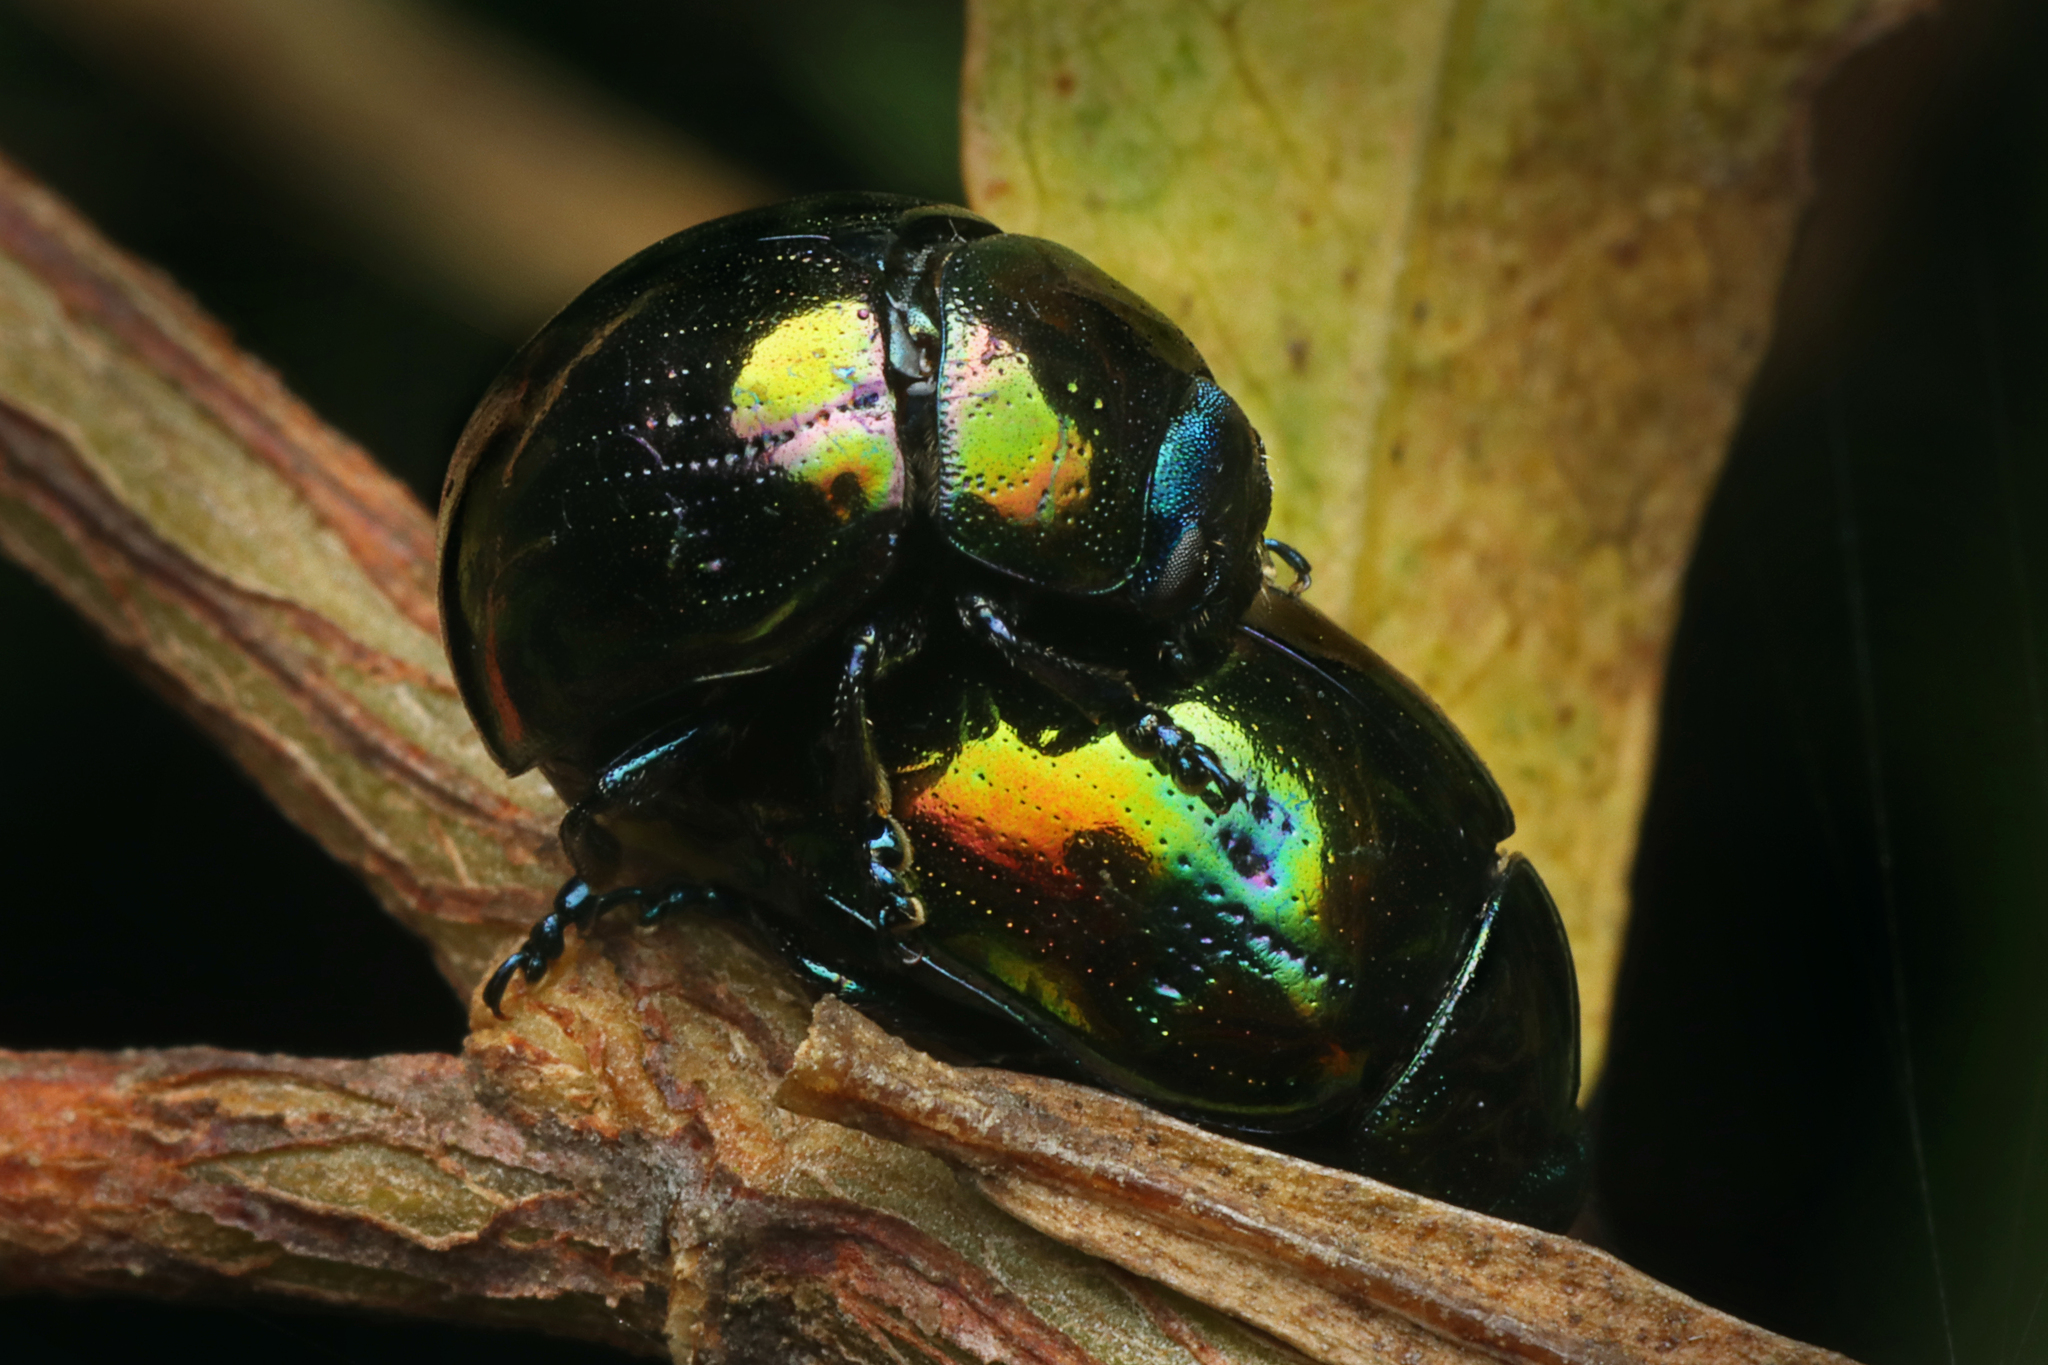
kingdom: Animalia
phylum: Arthropoda
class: Insecta
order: Coleoptera
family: Chrysomelidae
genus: Callidemum
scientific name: Callidemum
